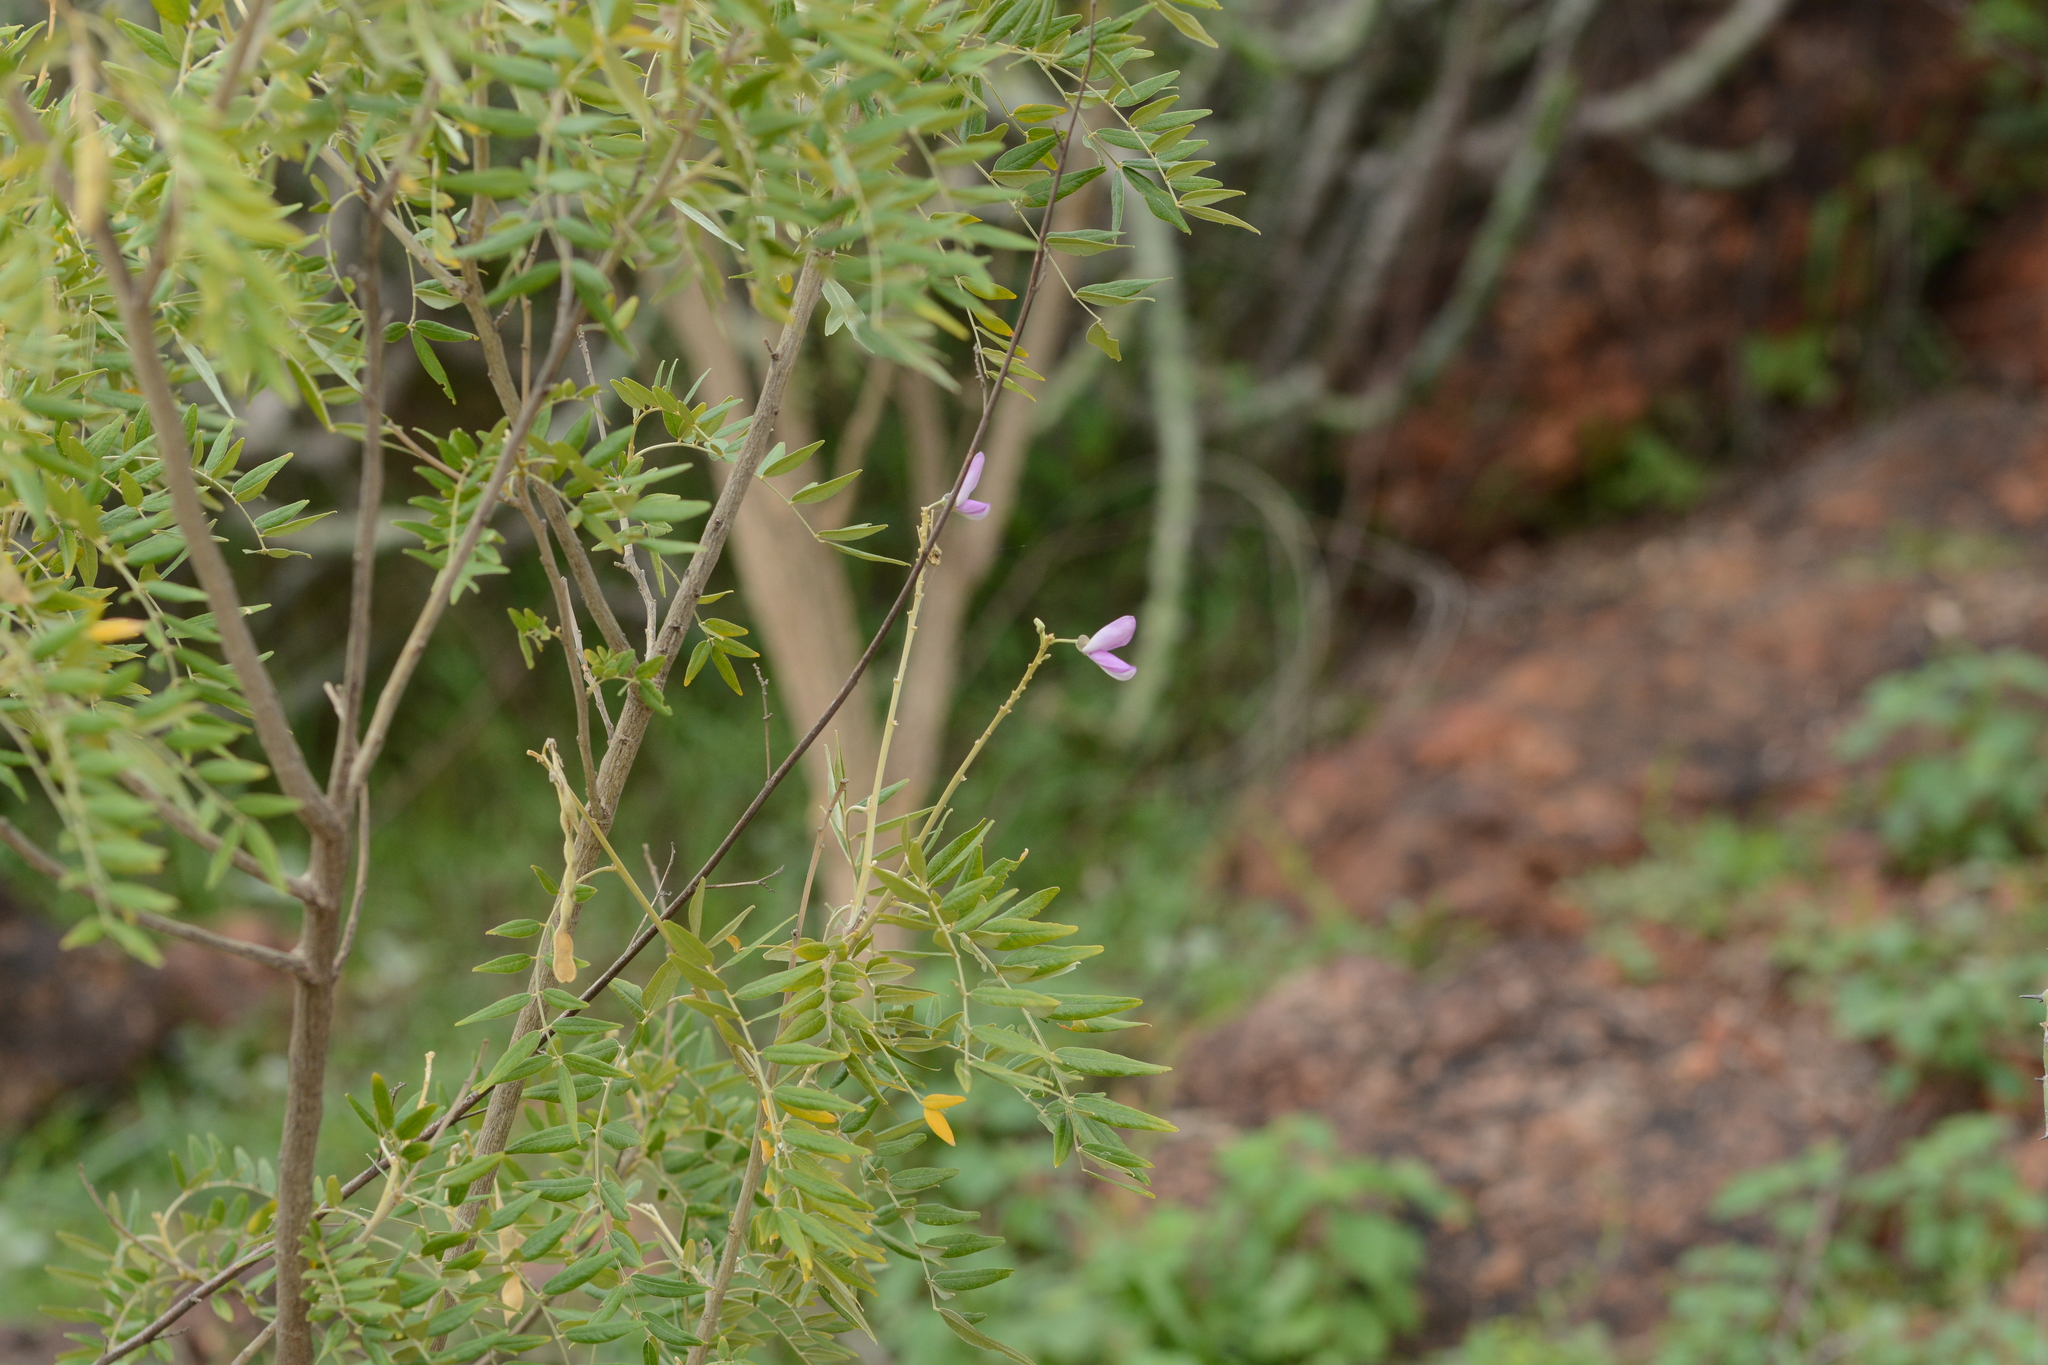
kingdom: Plantae
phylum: Tracheophyta
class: Magnoliopsida
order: Fabales
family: Fabaceae
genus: Mundulea
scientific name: Mundulea sericea
